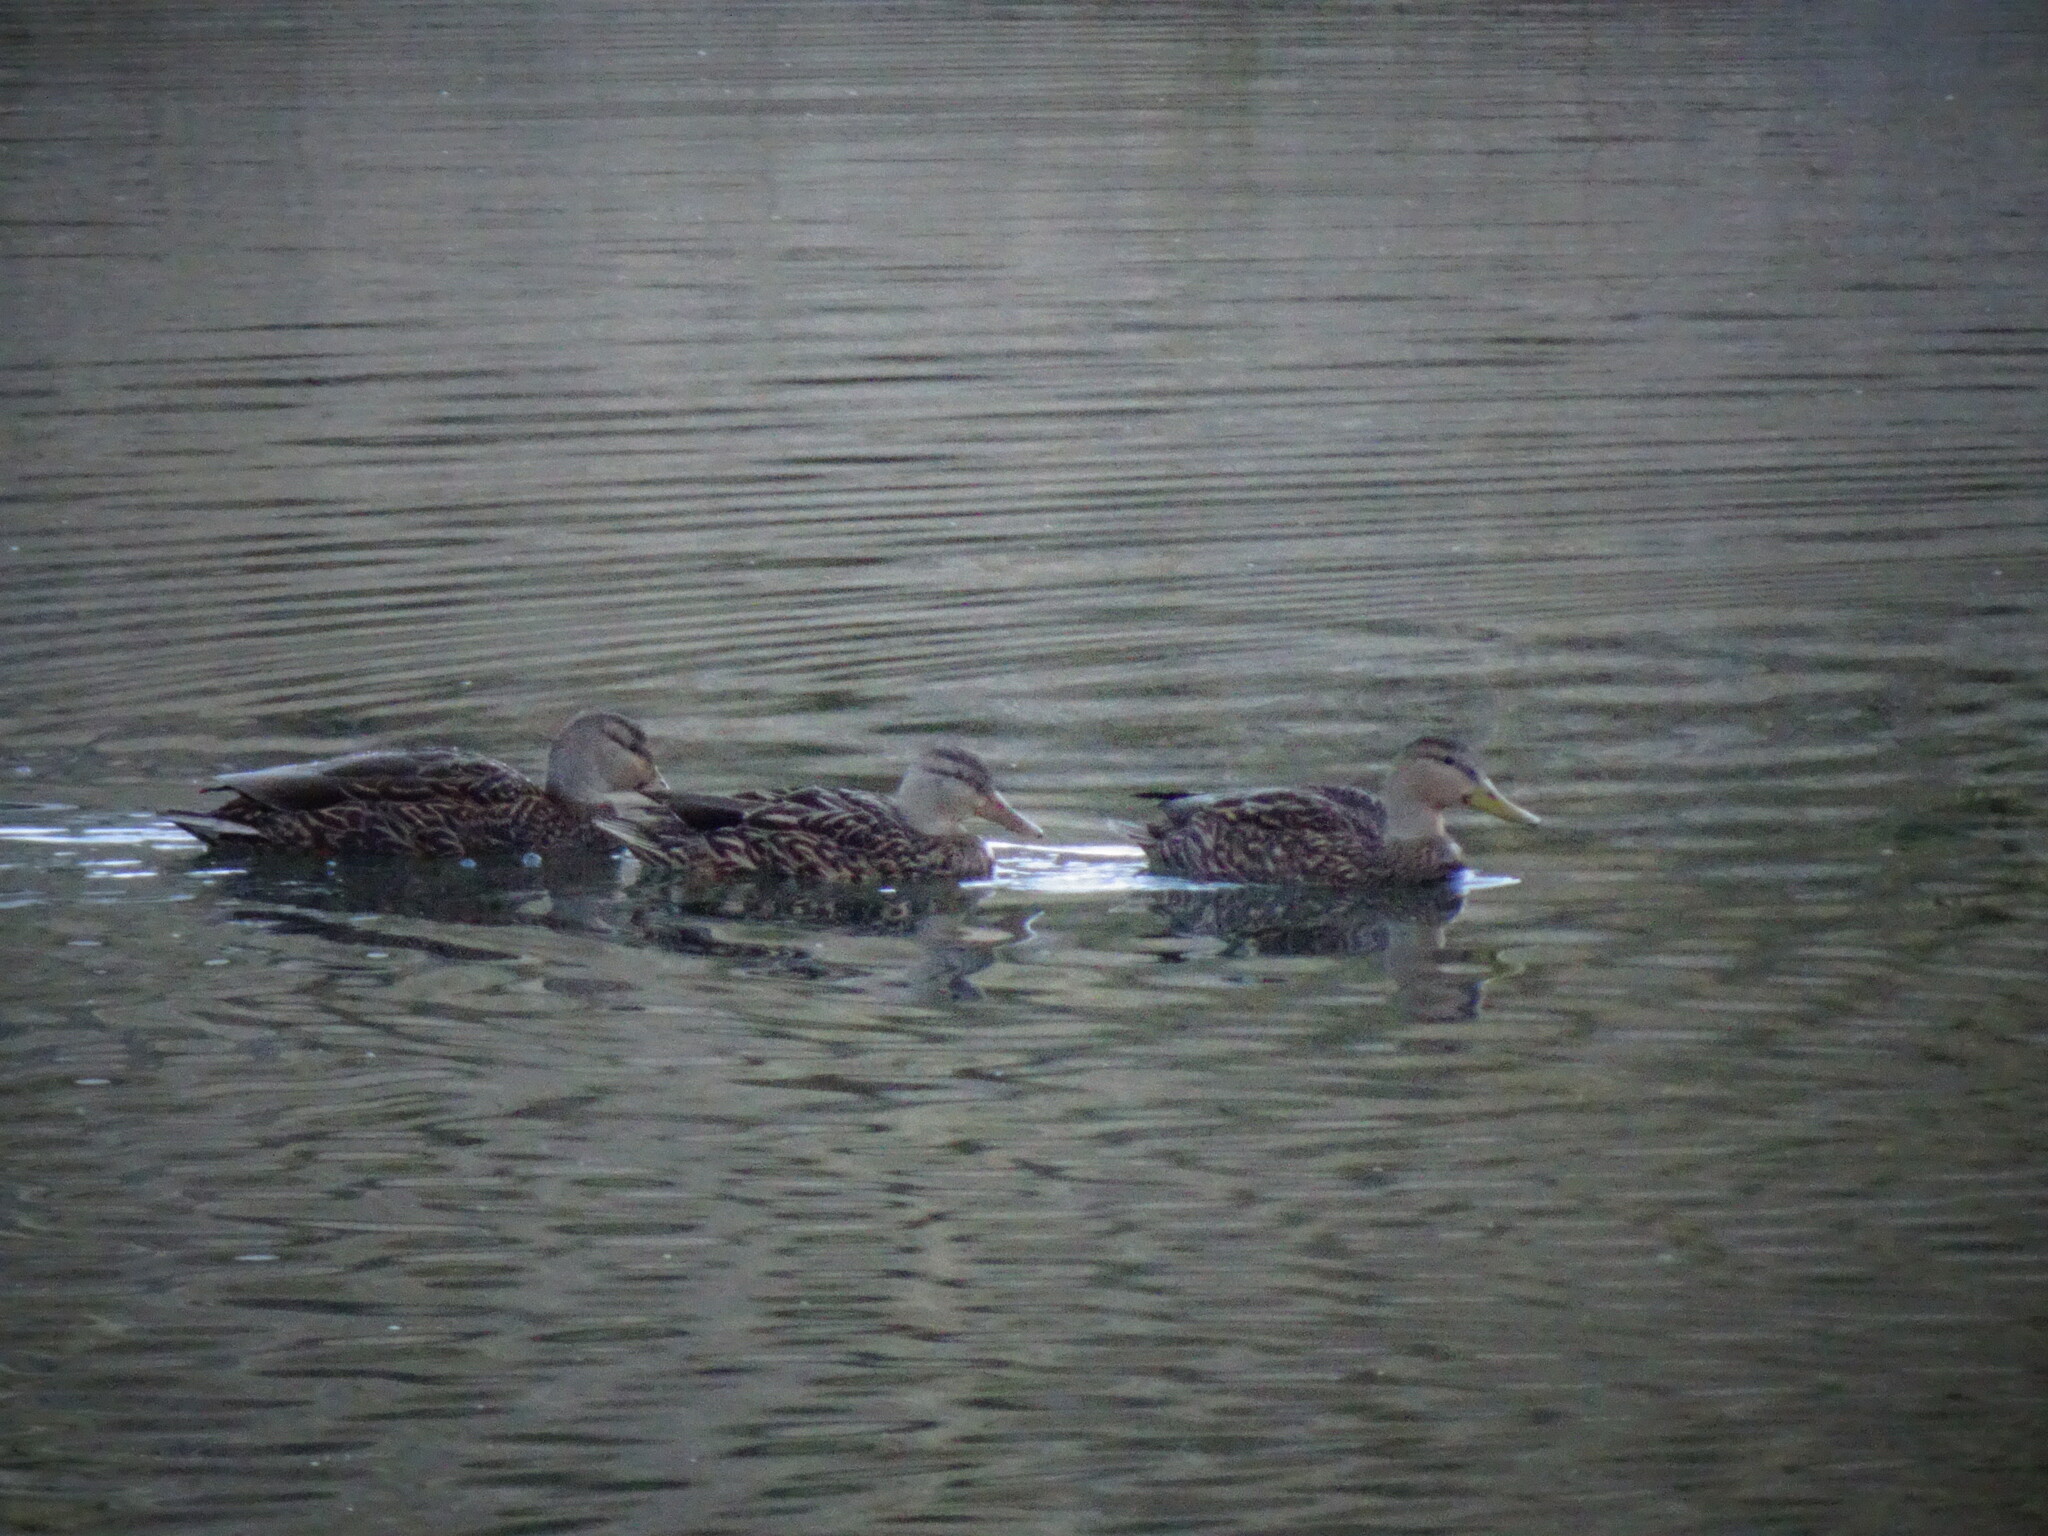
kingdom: Animalia
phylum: Chordata
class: Aves
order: Anseriformes
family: Anatidae
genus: Anas
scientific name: Anas diazi
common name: Mexican duck
